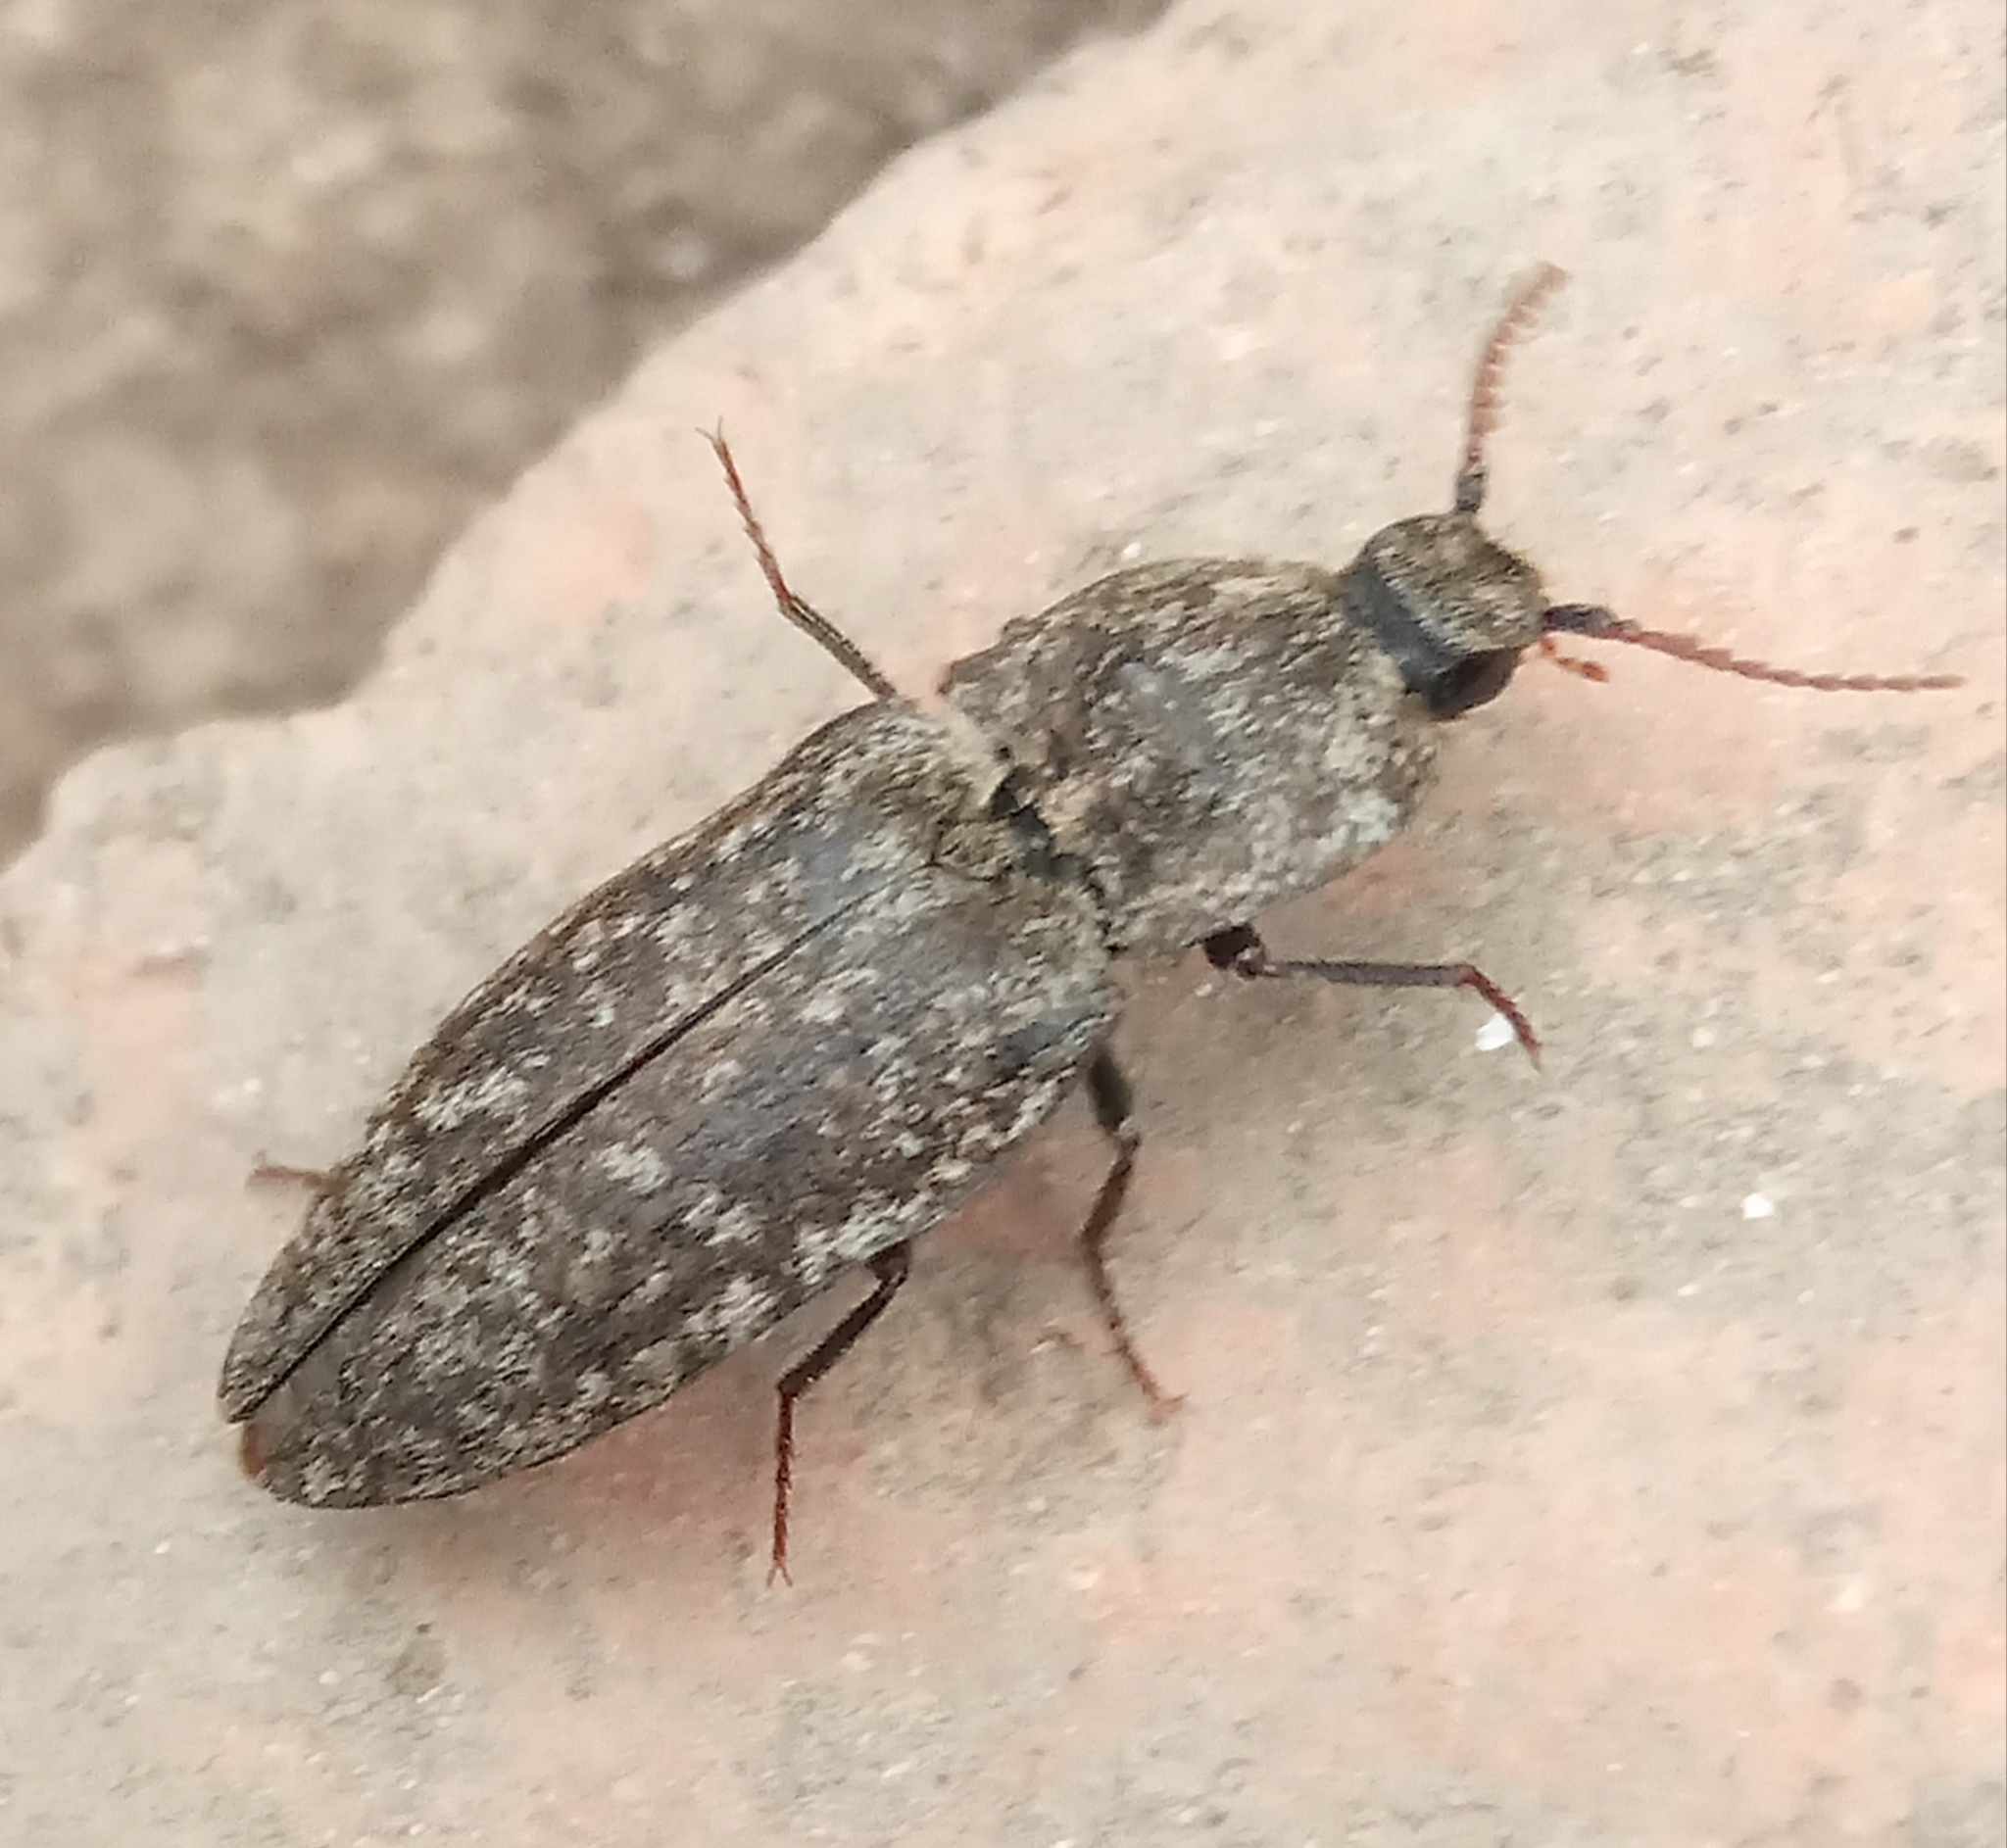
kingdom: Animalia
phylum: Arthropoda
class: Insecta
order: Coleoptera
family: Elateridae
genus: Agrypnus
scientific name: Agrypnus murinus
